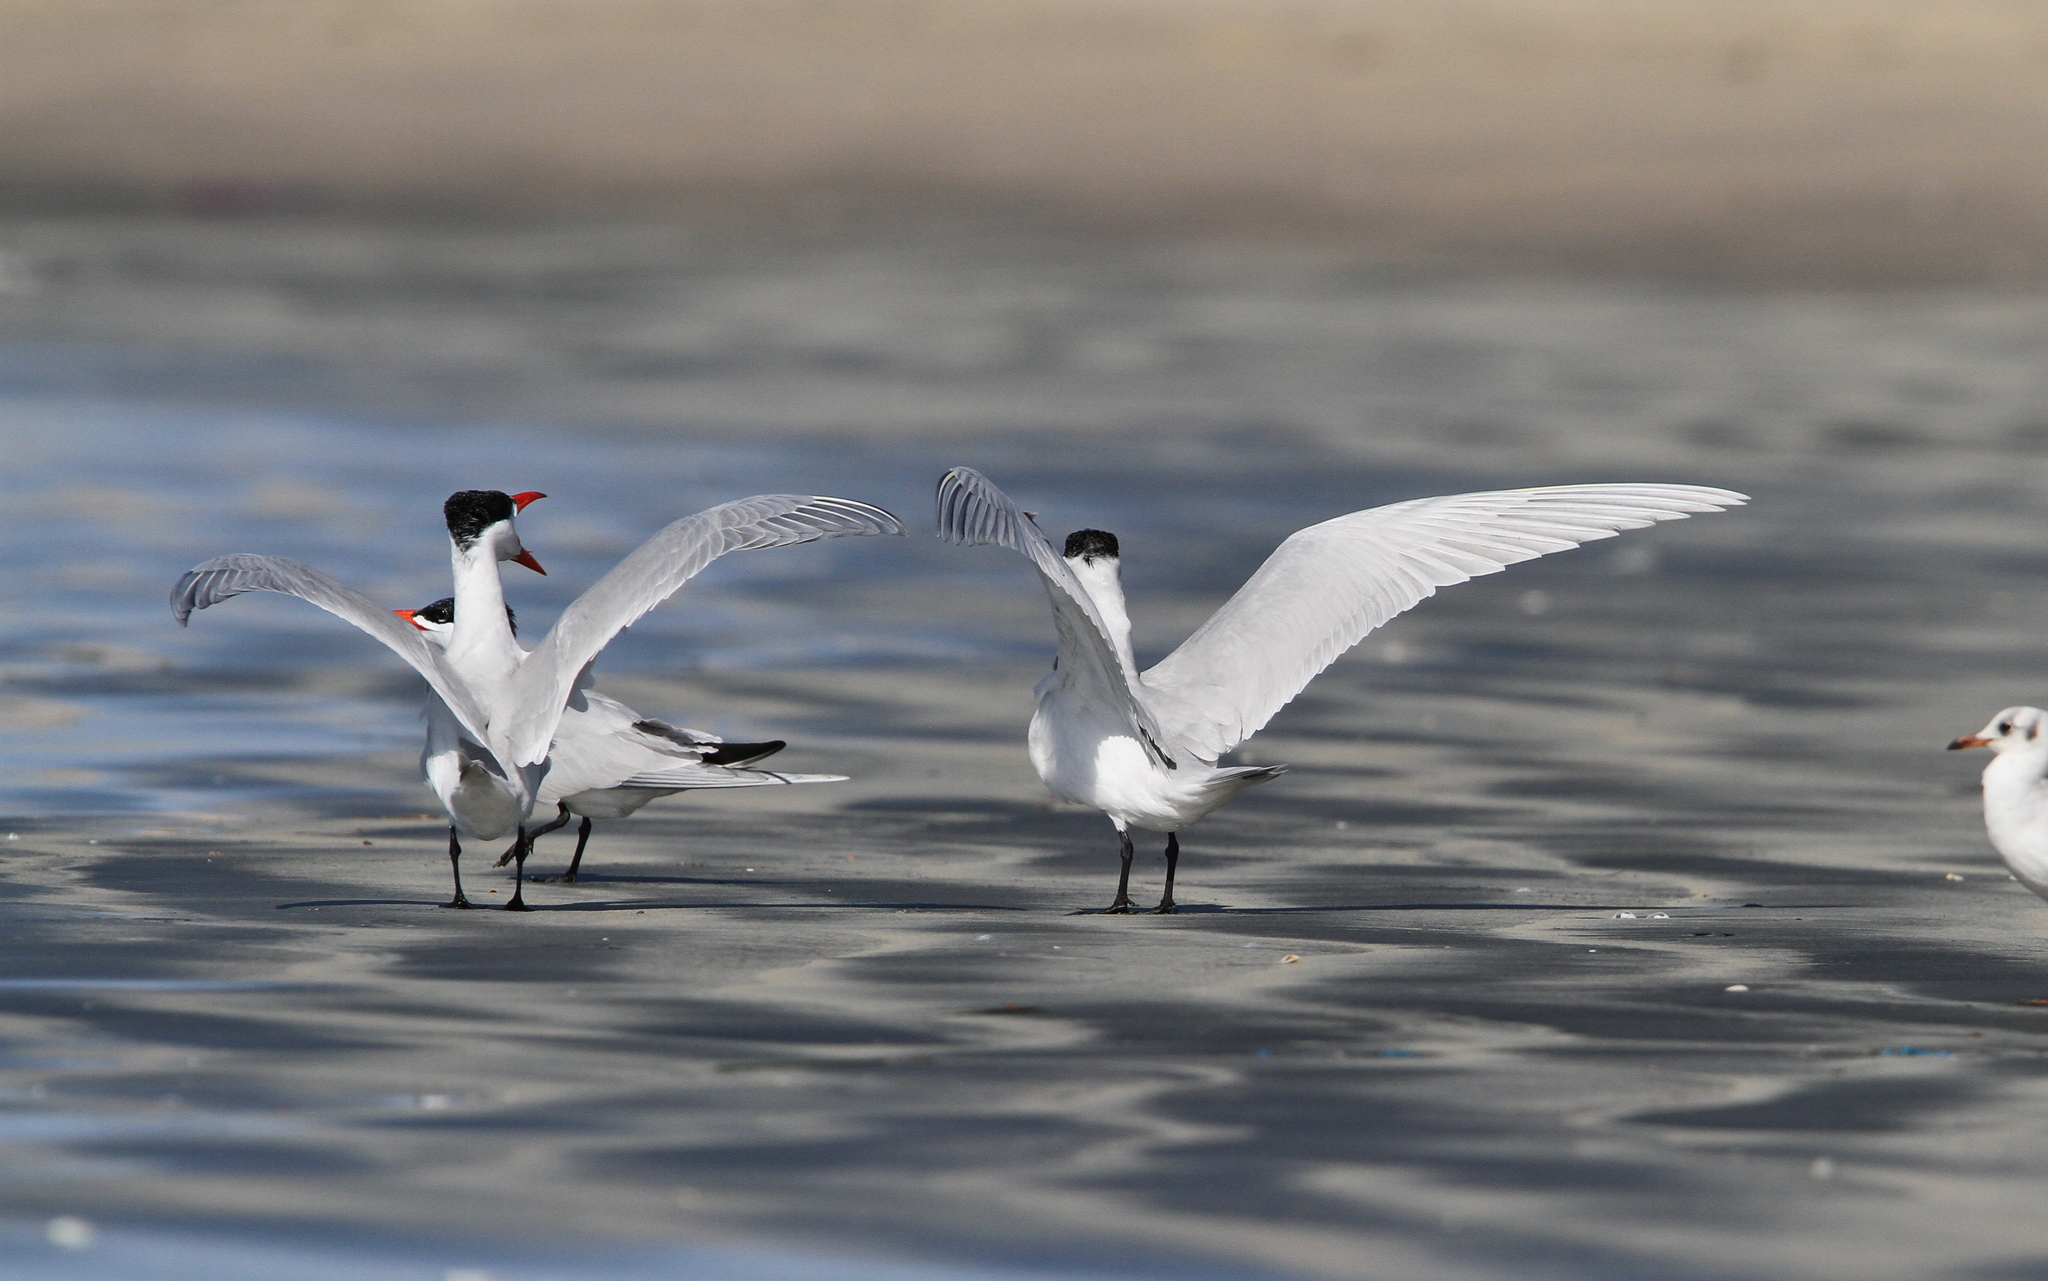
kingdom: Animalia
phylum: Chordata
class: Aves
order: Charadriiformes
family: Laridae
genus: Hydroprogne
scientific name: Hydroprogne caspia
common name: Caspian tern
